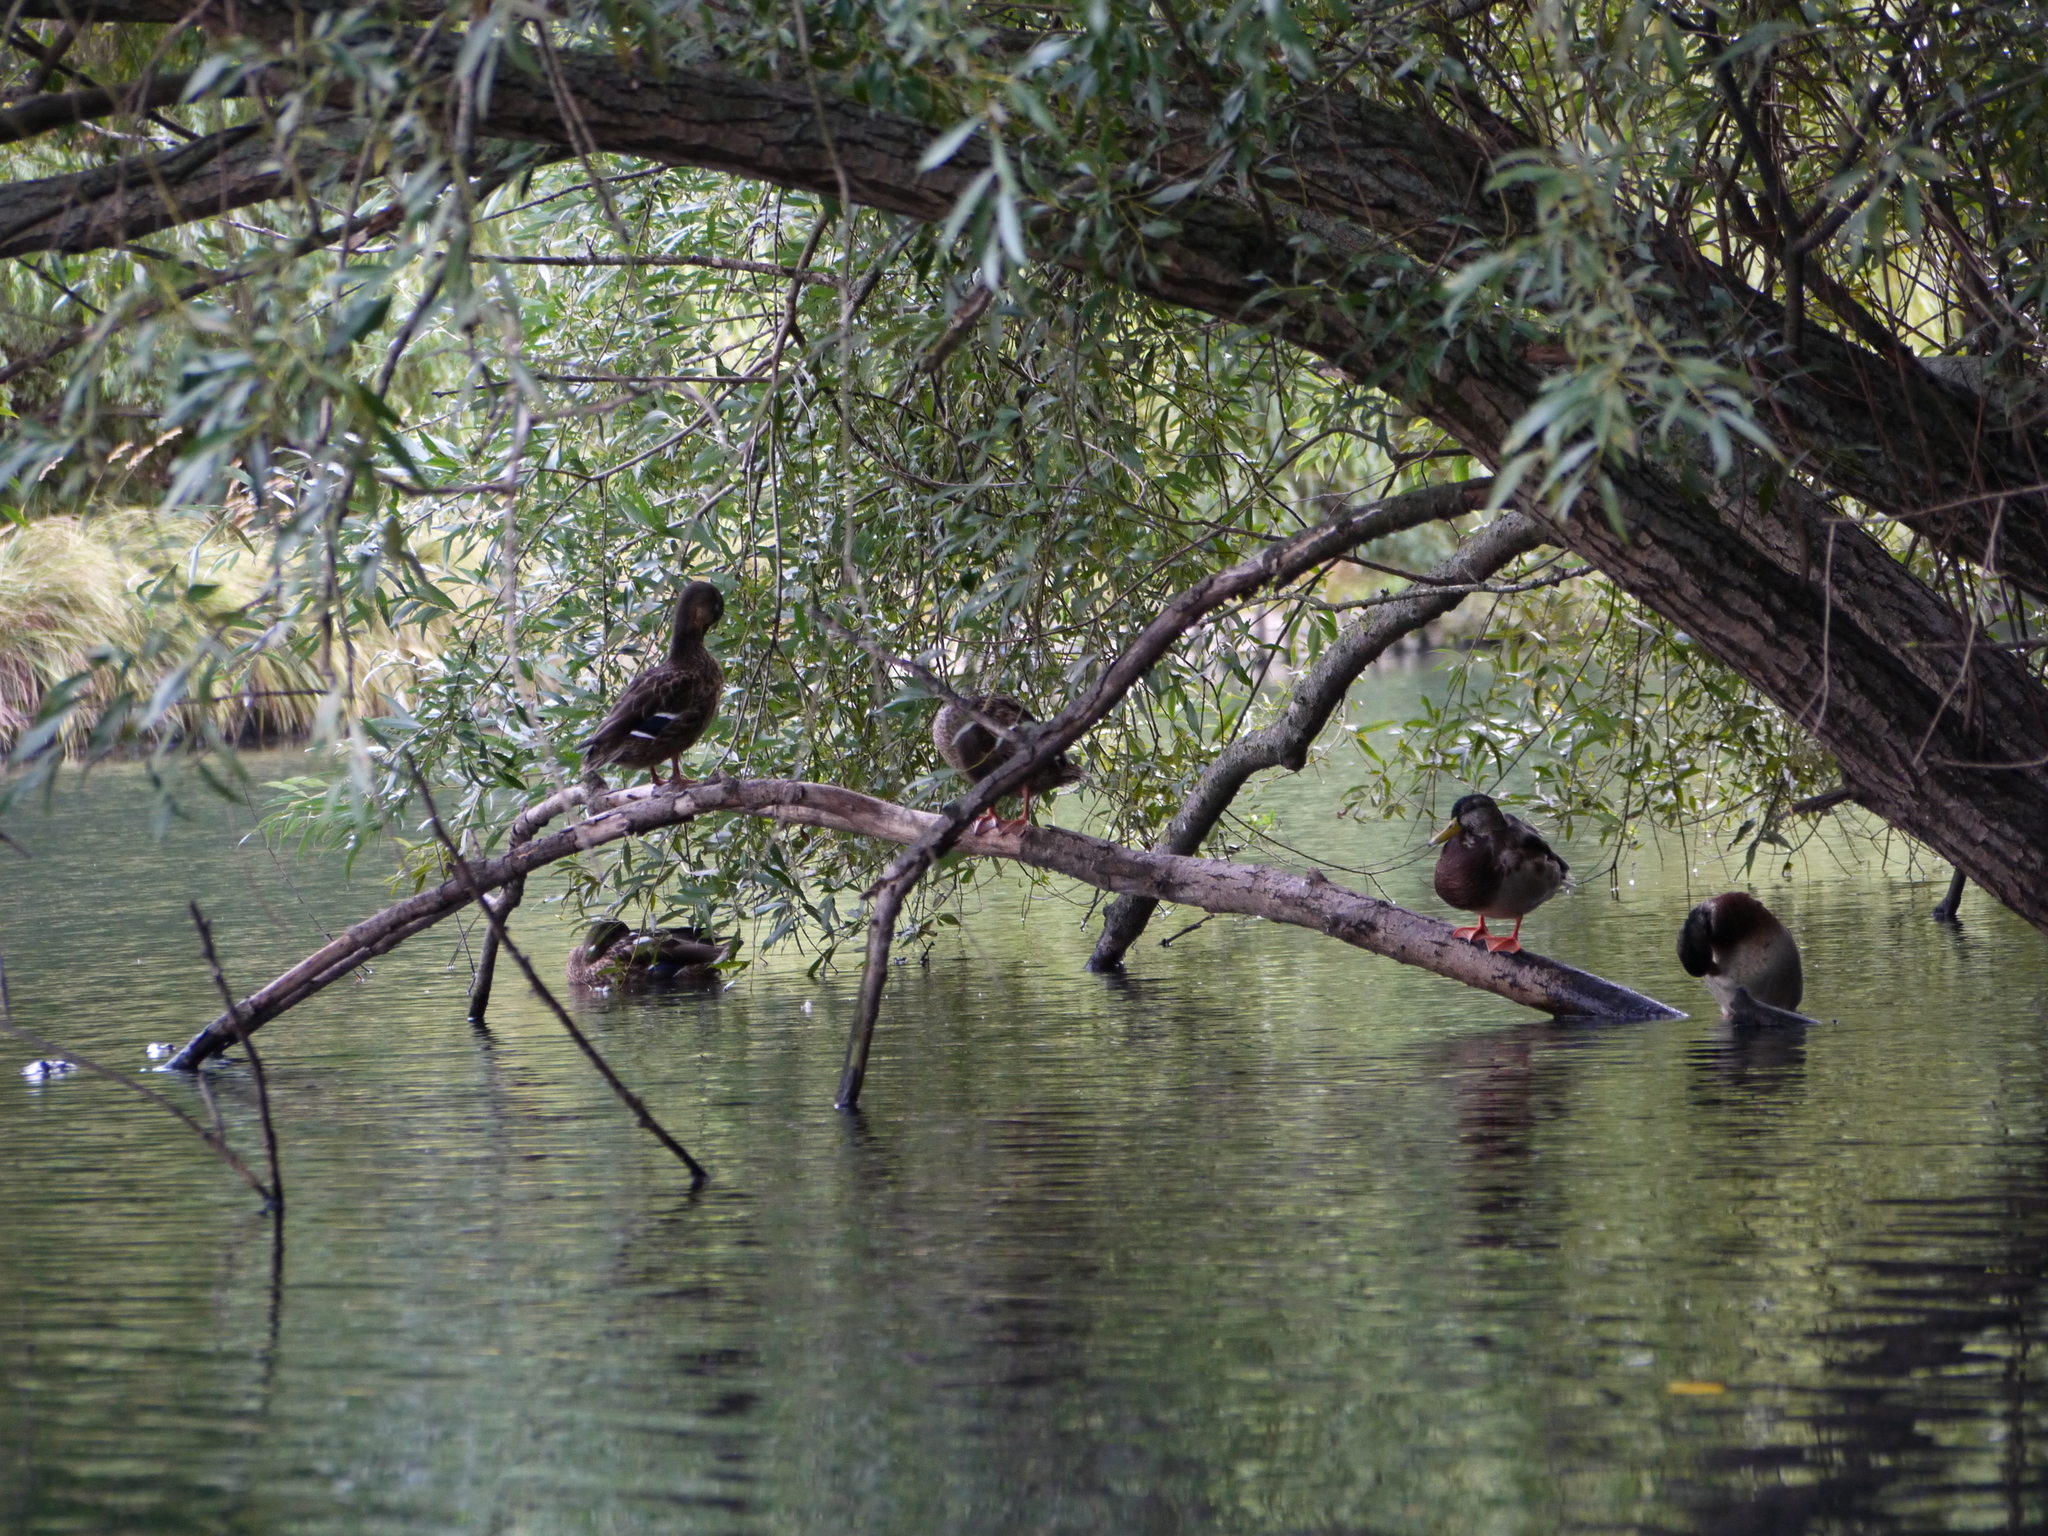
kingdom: Animalia
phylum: Chordata
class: Aves
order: Anseriformes
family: Anatidae
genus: Anas
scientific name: Anas platyrhynchos
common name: Mallard
